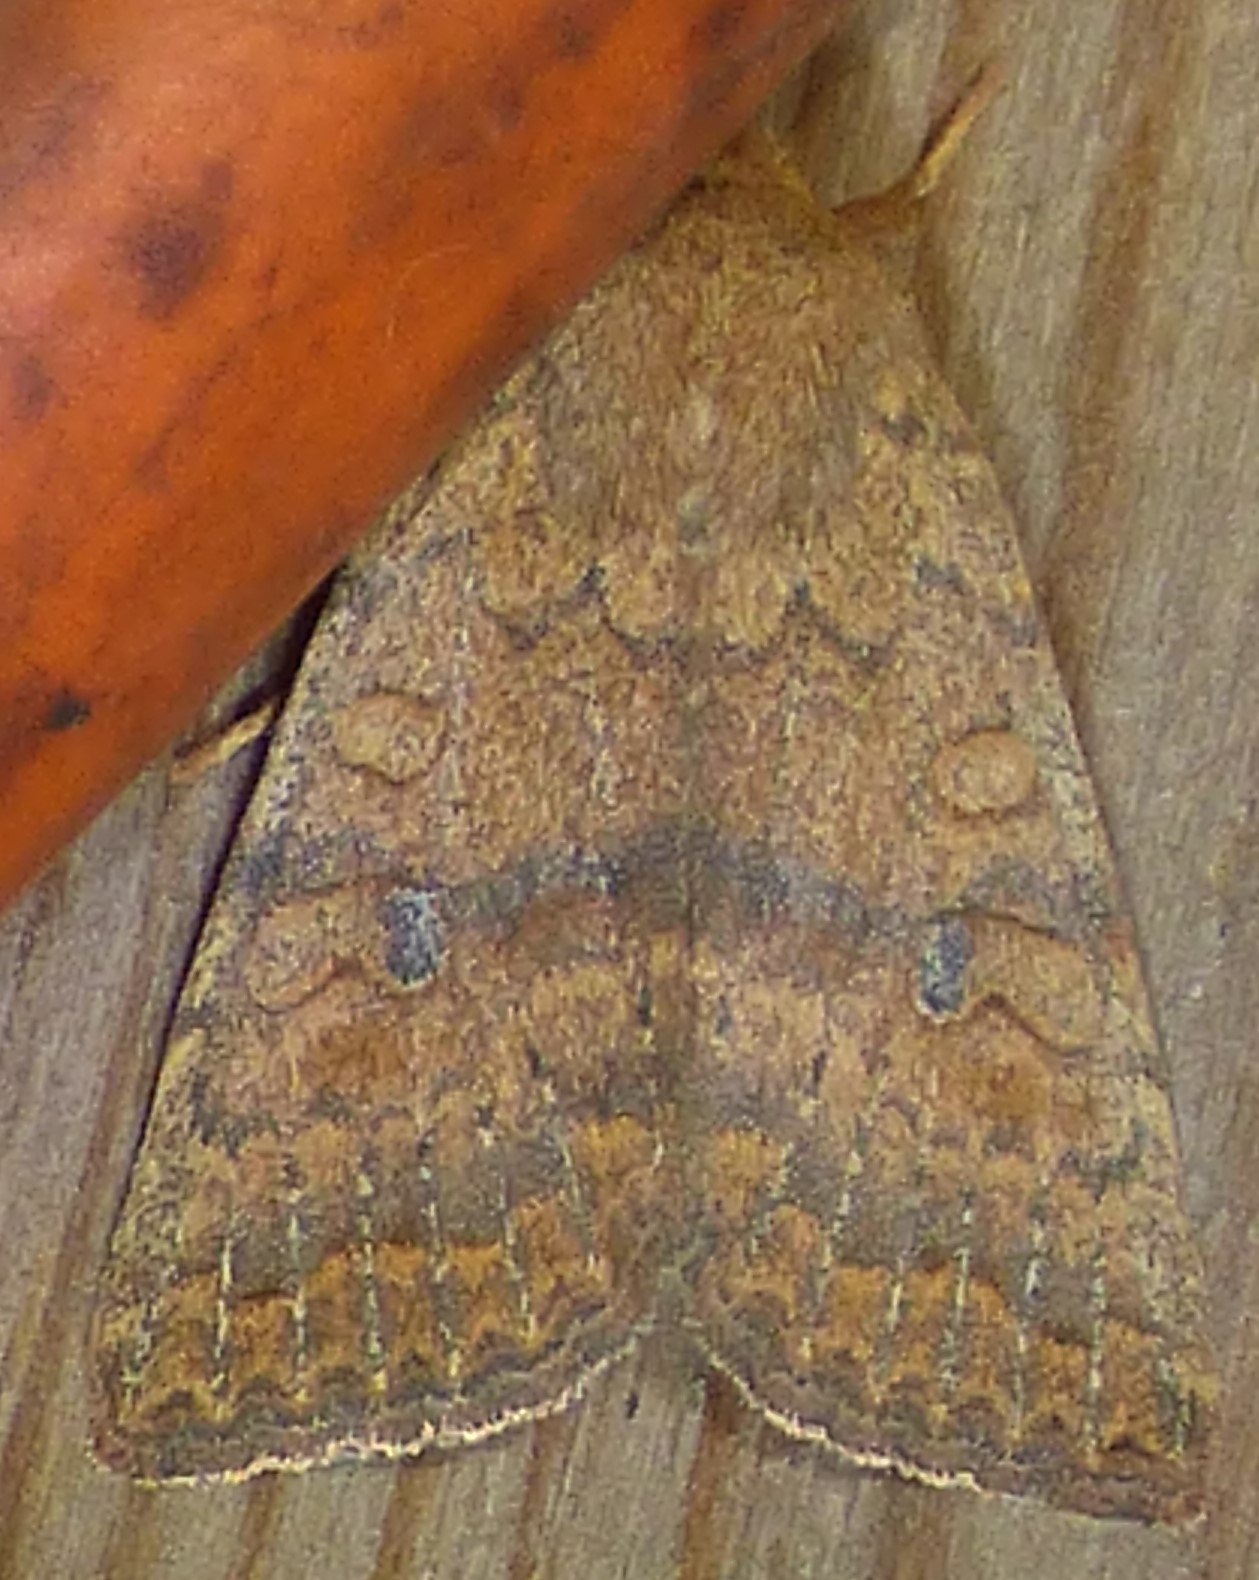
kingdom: Animalia
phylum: Arthropoda
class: Insecta
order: Lepidoptera
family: Noctuidae
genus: Agrochola
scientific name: Agrochola bicolorago
